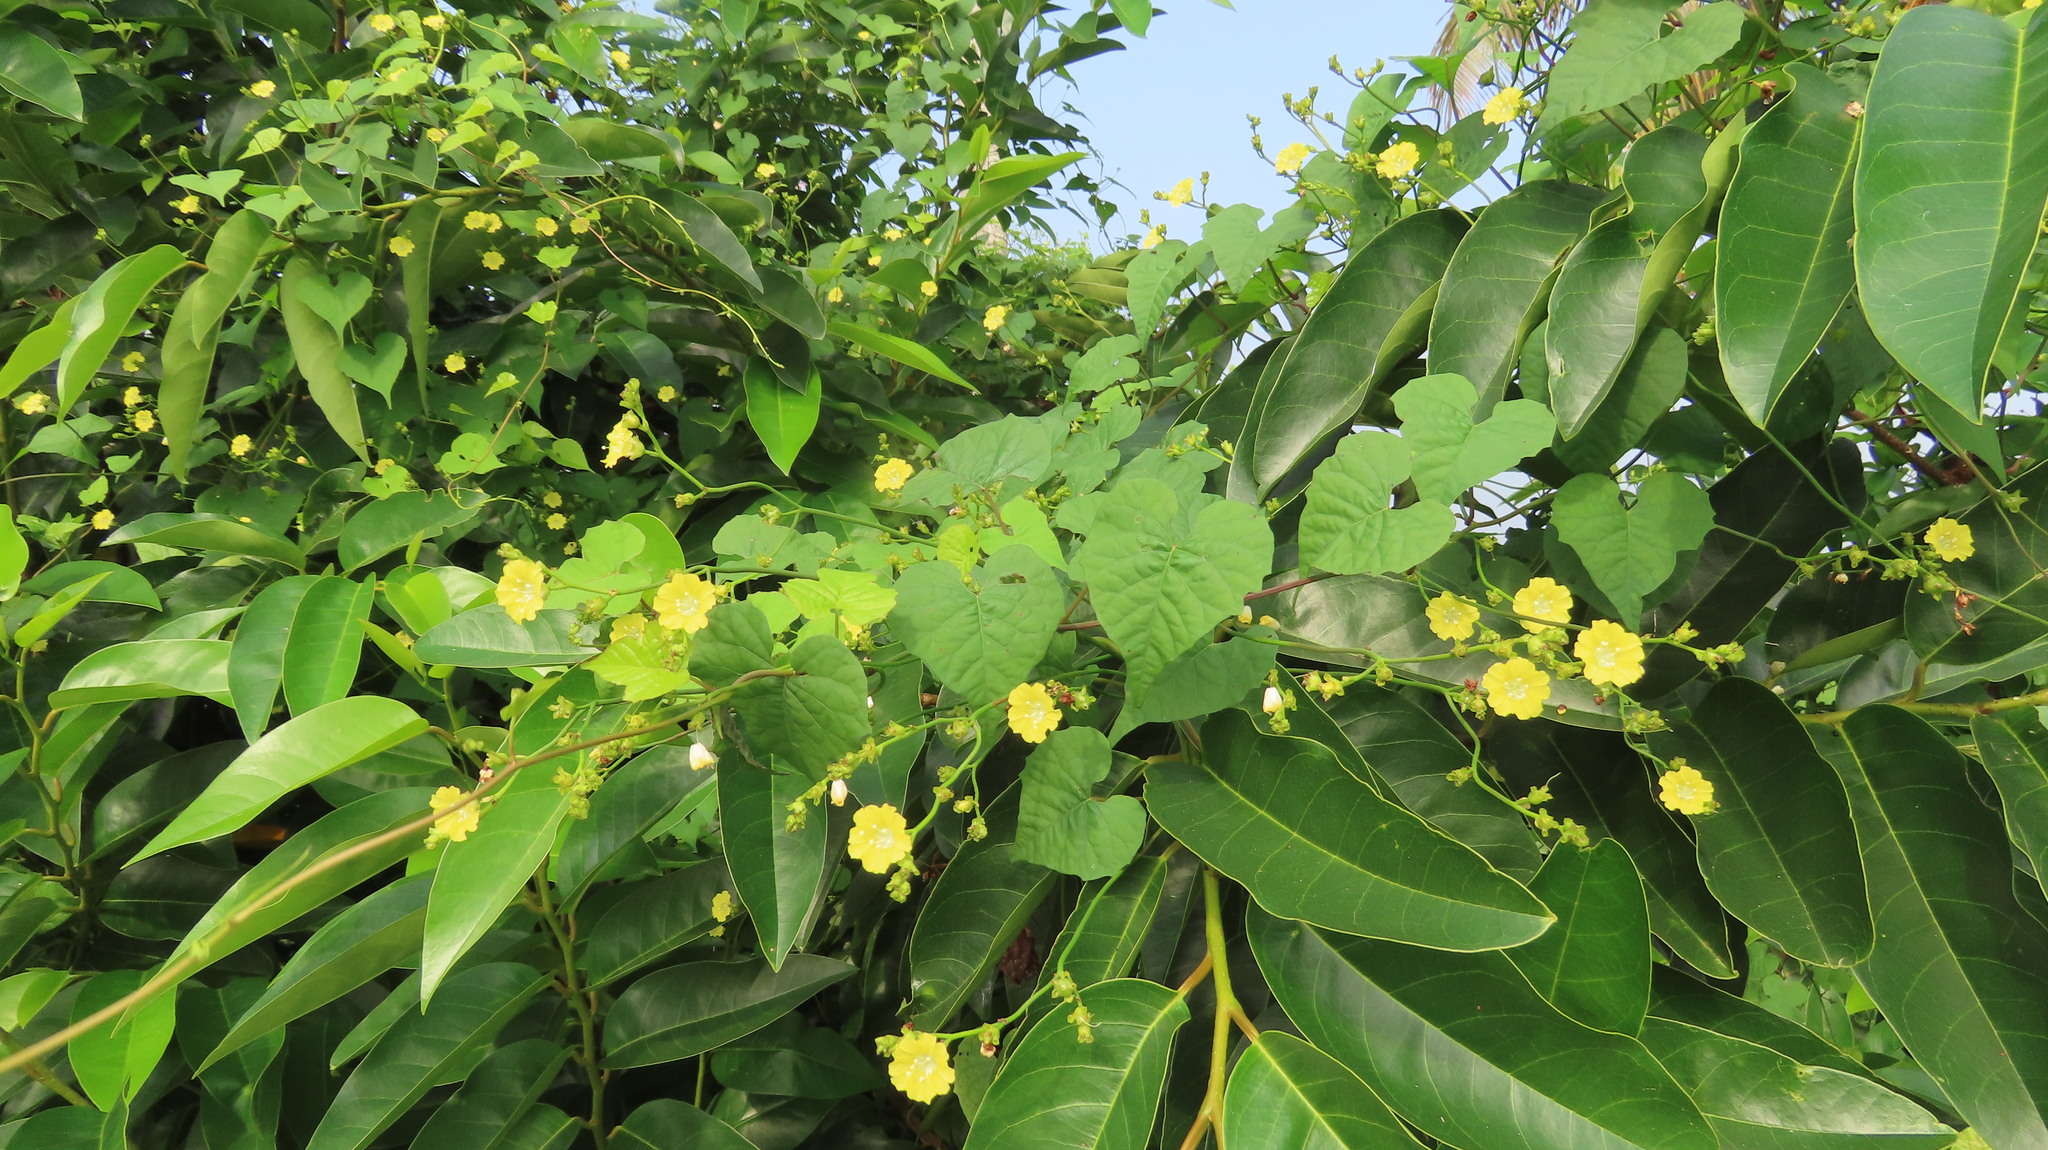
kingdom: Plantae
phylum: Tracheophyta
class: Magnoliopsida
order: Solanales
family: Convolvulaceae
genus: Merremia
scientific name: Merremia hederacea
